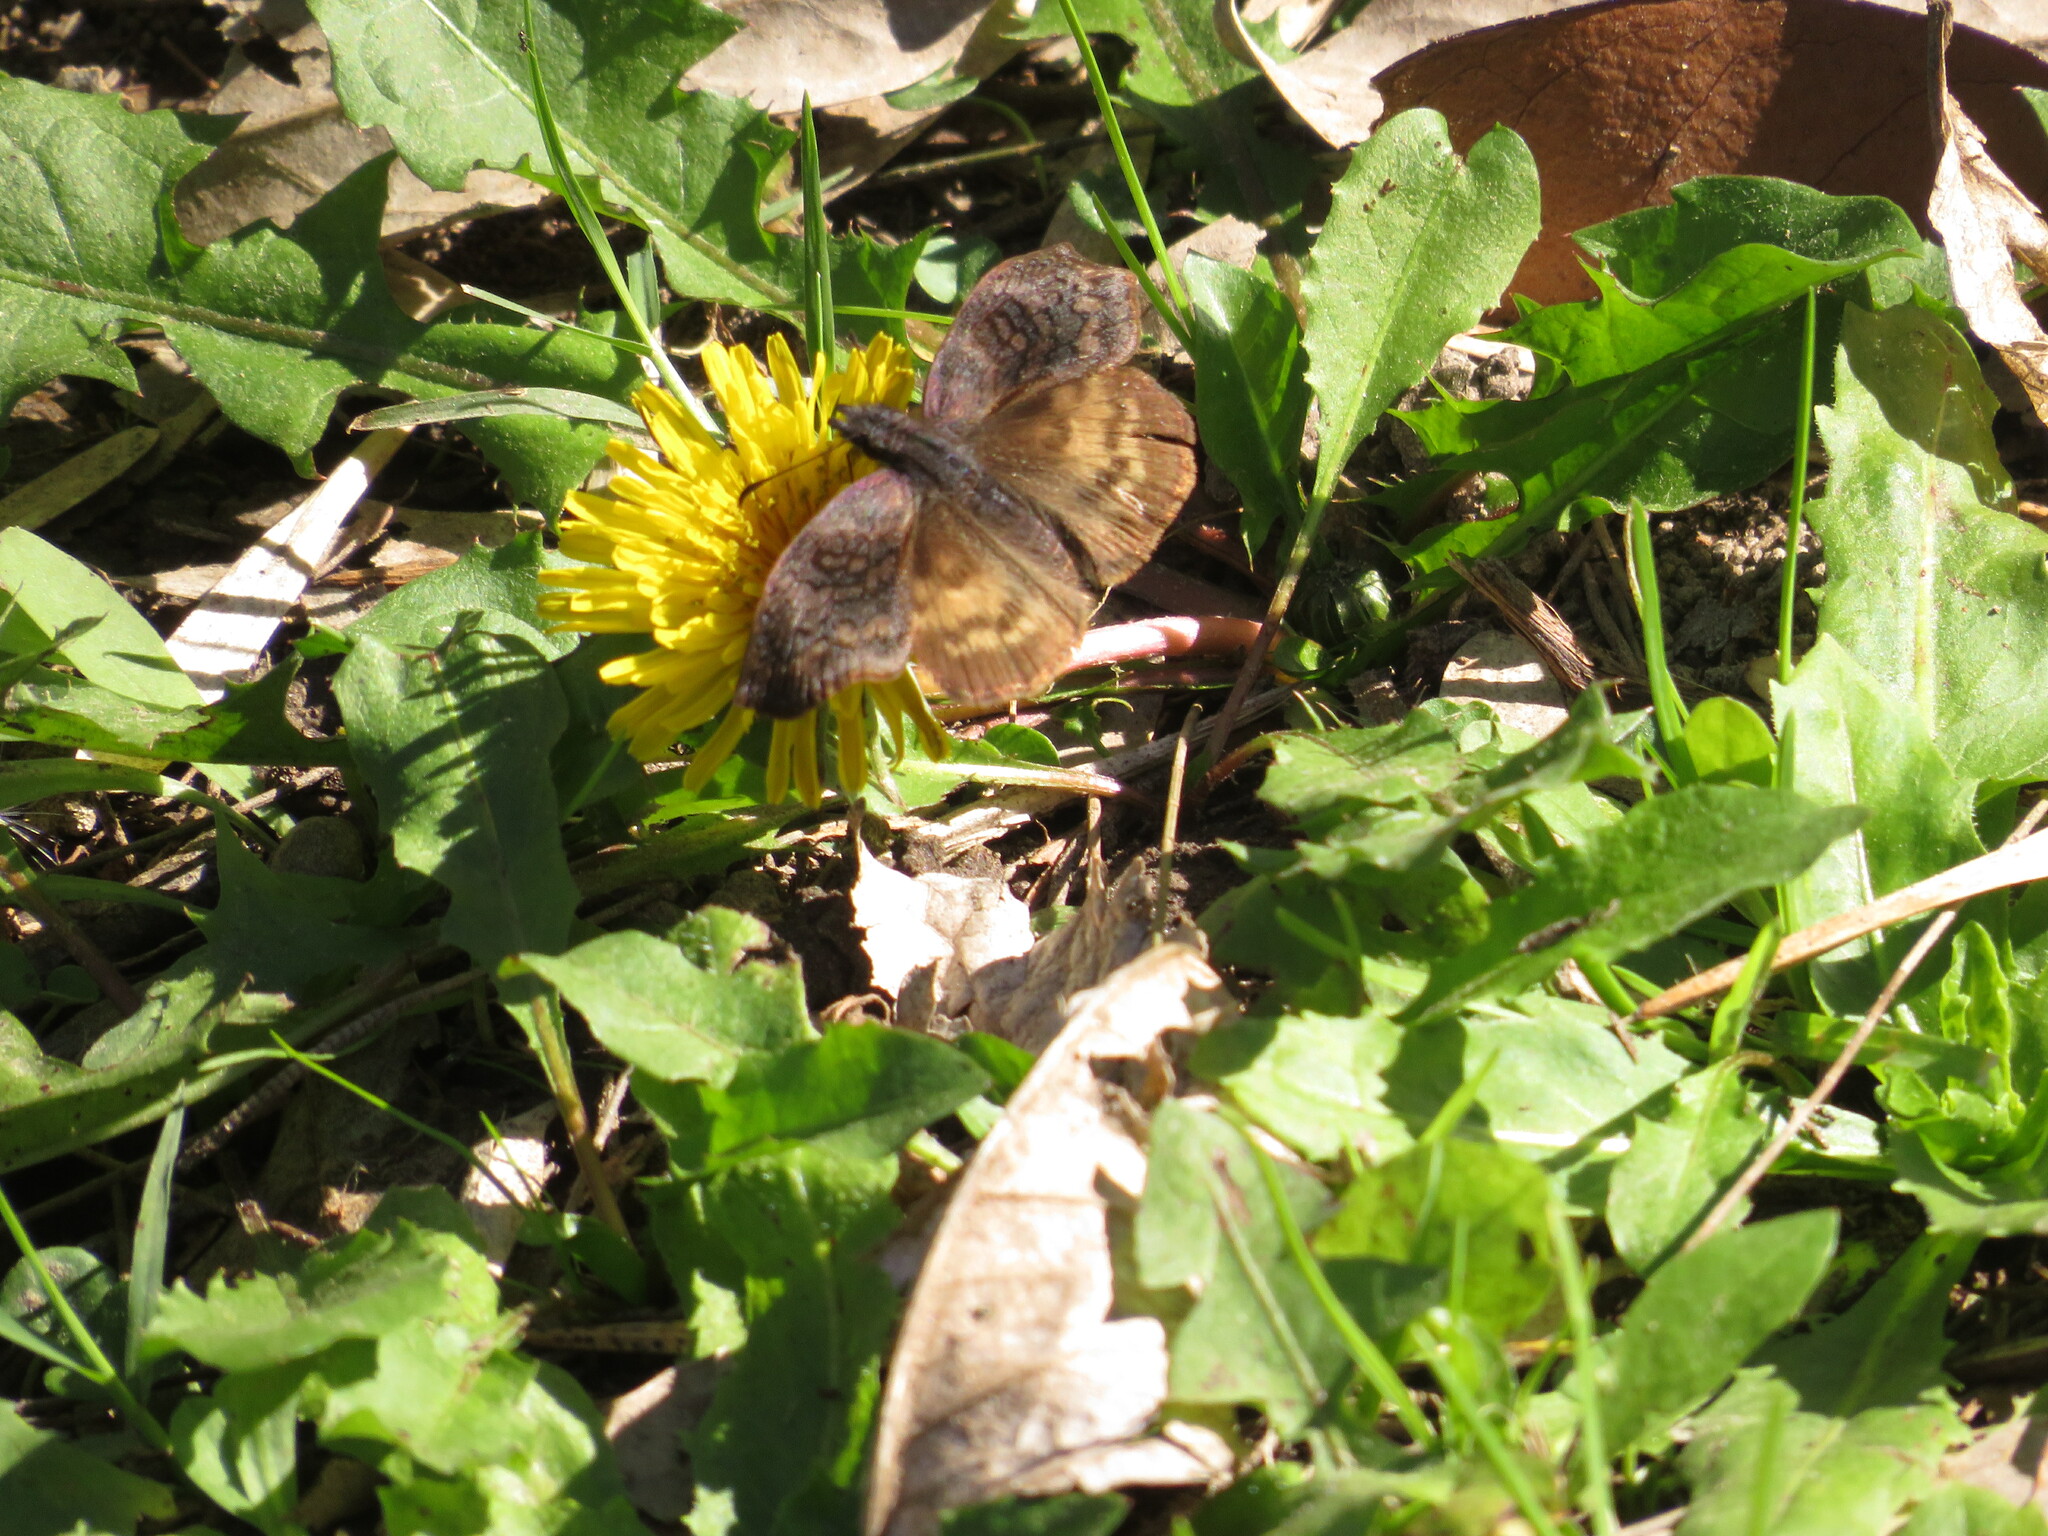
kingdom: Animalia
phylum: Arthropoda
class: Insecta
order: Lepidoptera
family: Hesperiidae
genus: Theagenes
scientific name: Theagenes dichrous
